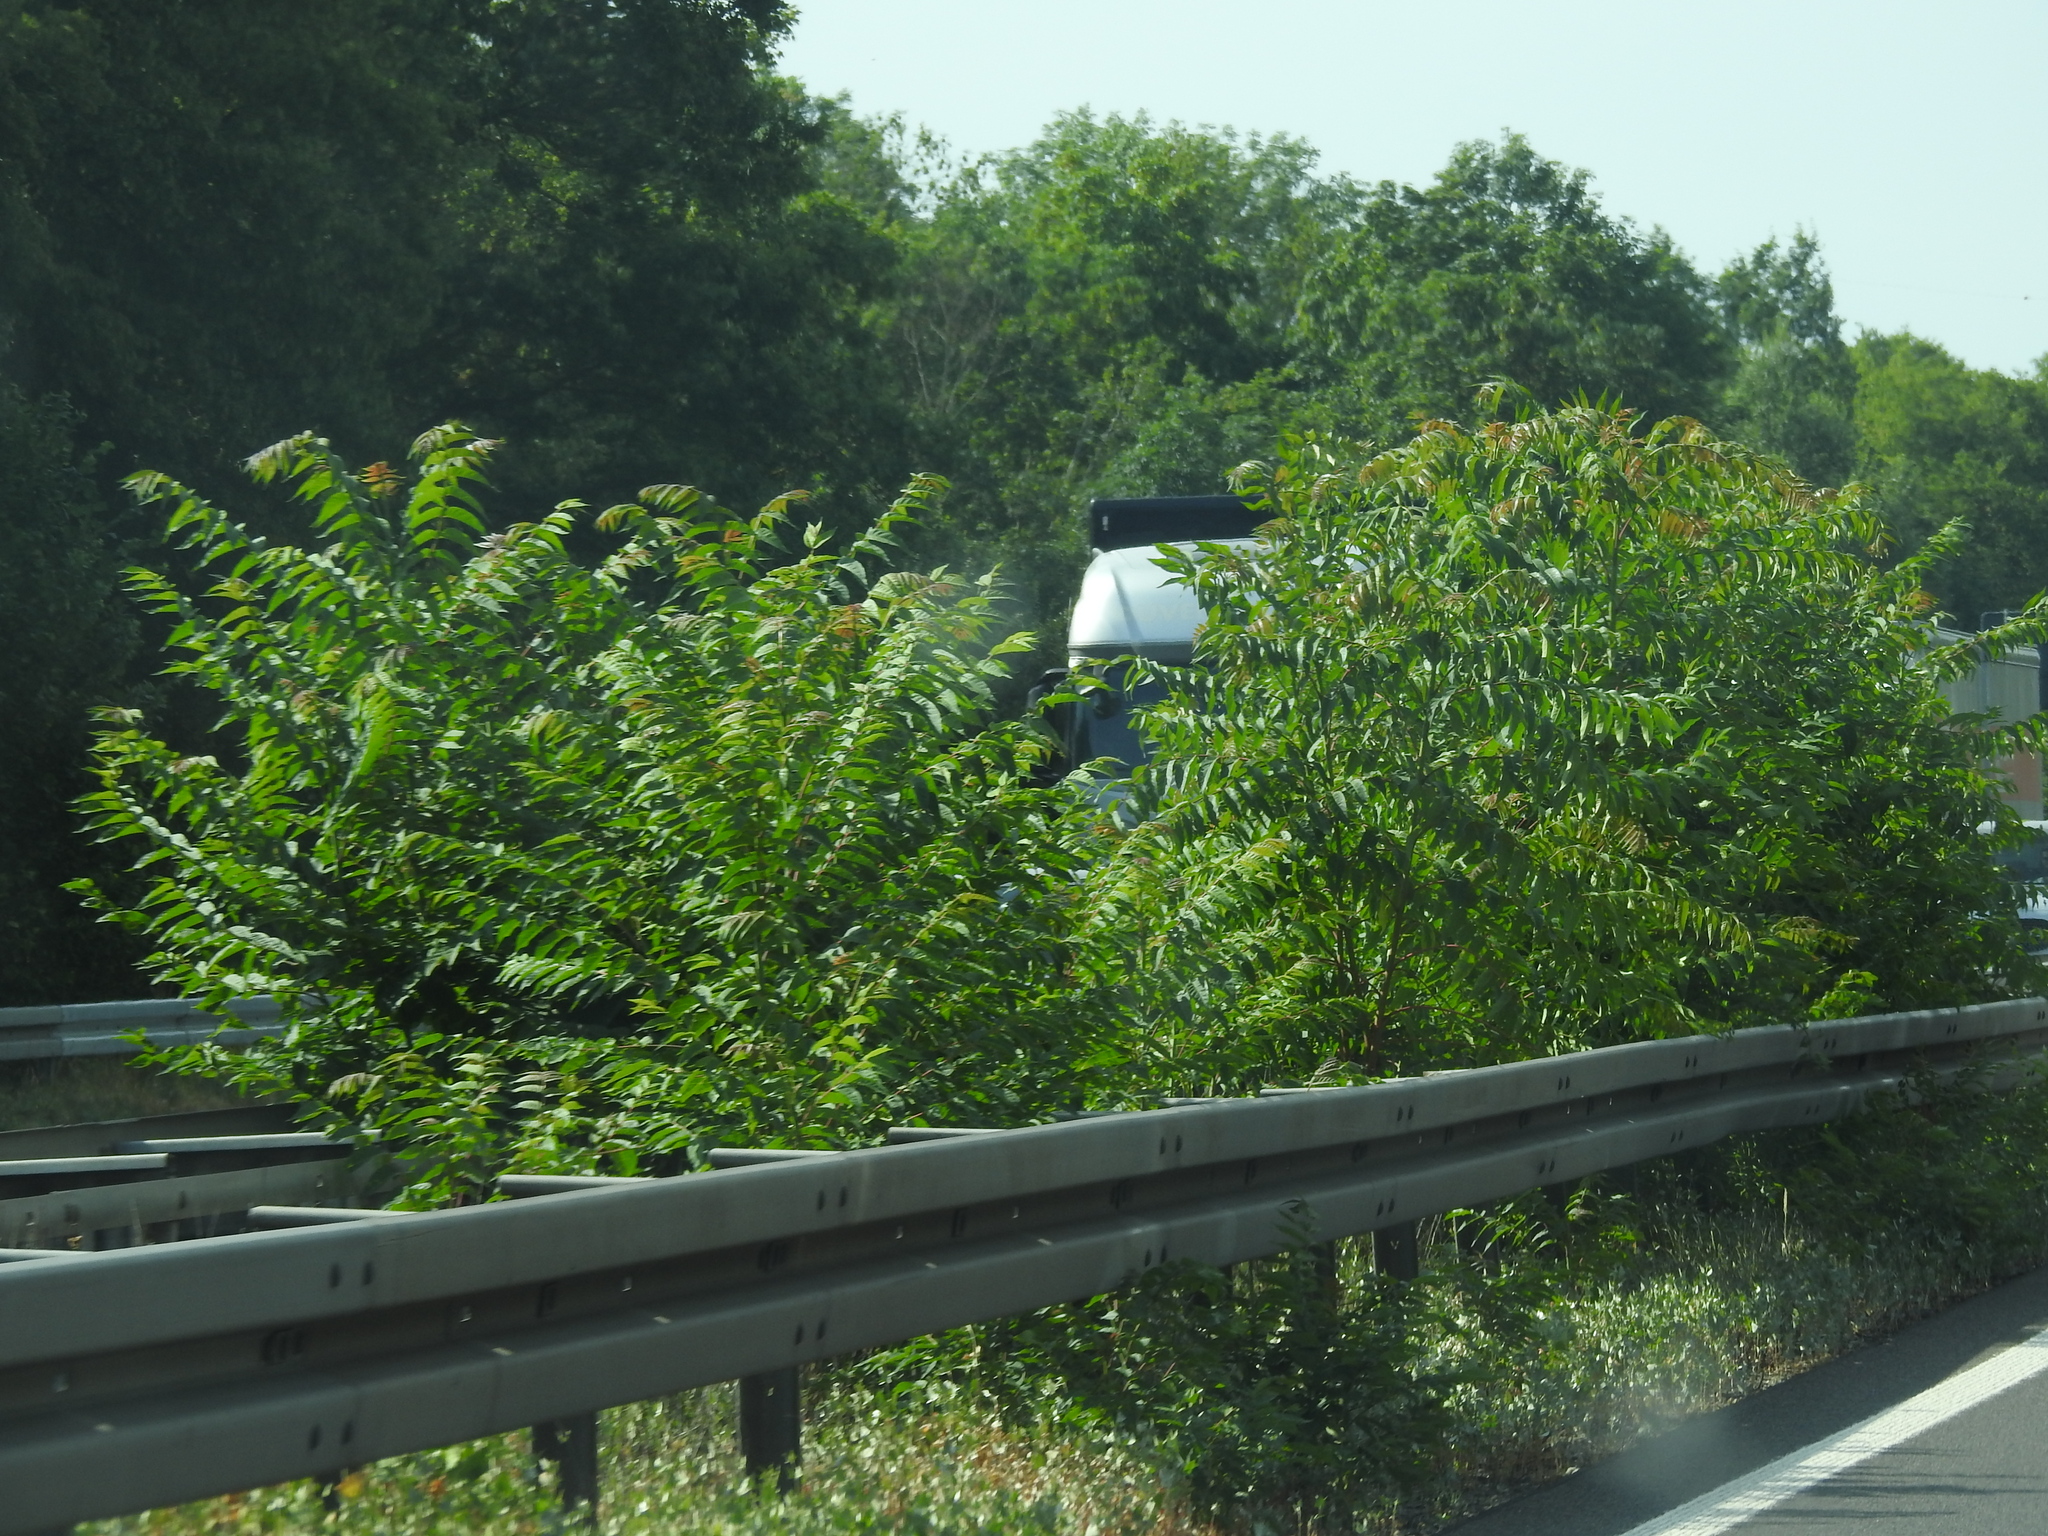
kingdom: Plantae
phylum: Tracheophyta
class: Magnoliopsida
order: Sapindales
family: Simaroubaceae
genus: Ailanthus
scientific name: Ailanthus altissima
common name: Tree-of-heaven
